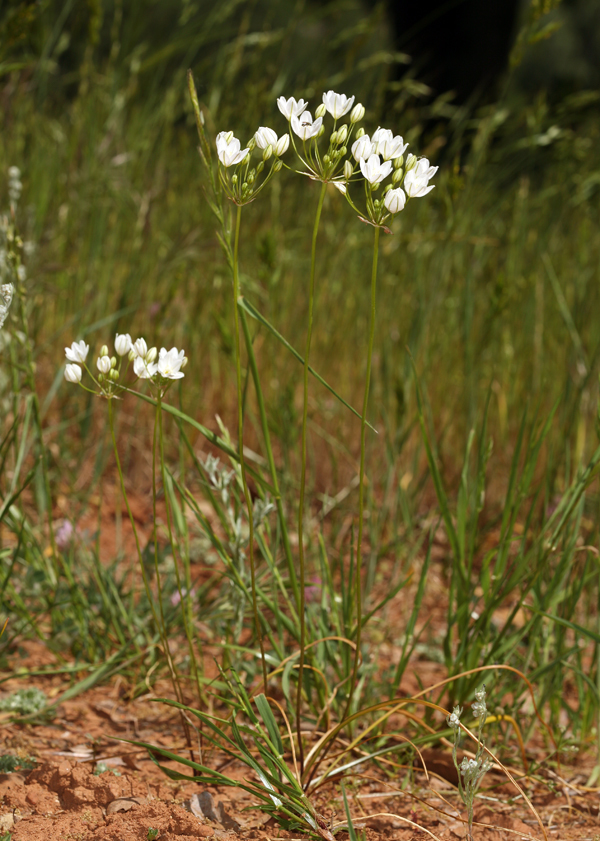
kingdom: Plantae
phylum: Tracheophyta
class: Liliopsida
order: Asparagales
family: Asparagaceae
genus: Triteleia
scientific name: Triteleia hyacinthina
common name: White brodiaea
